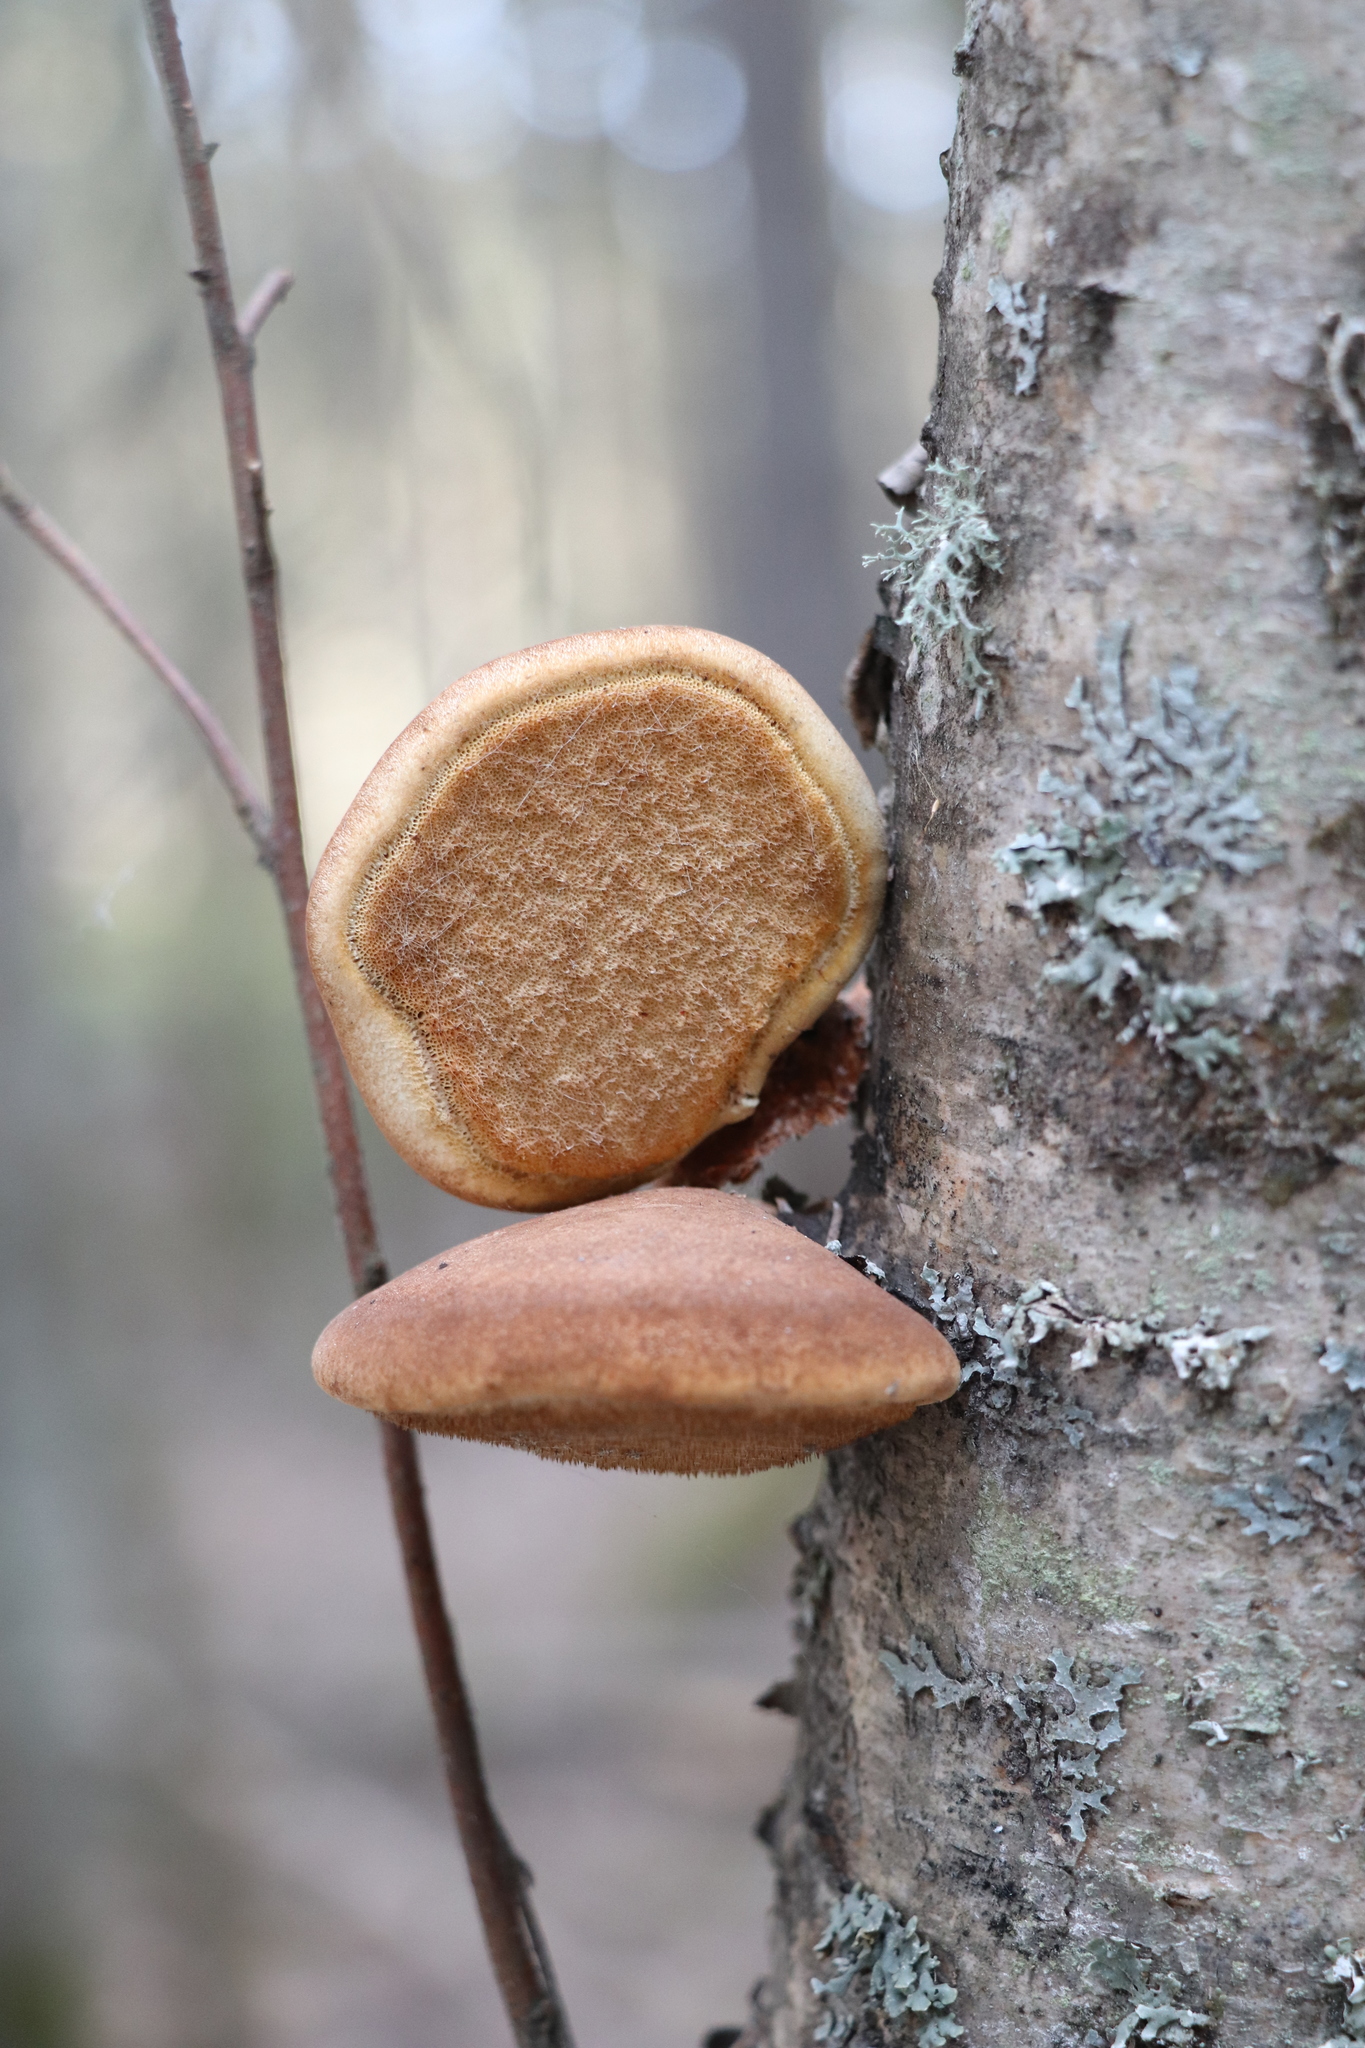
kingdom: Fungi
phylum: Basidiomycota
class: Agaricomycetes
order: Polyporales
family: Fomitopsidaceae
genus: Fomitopsis
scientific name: Fomitopsis betulina
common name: Birch polypore
